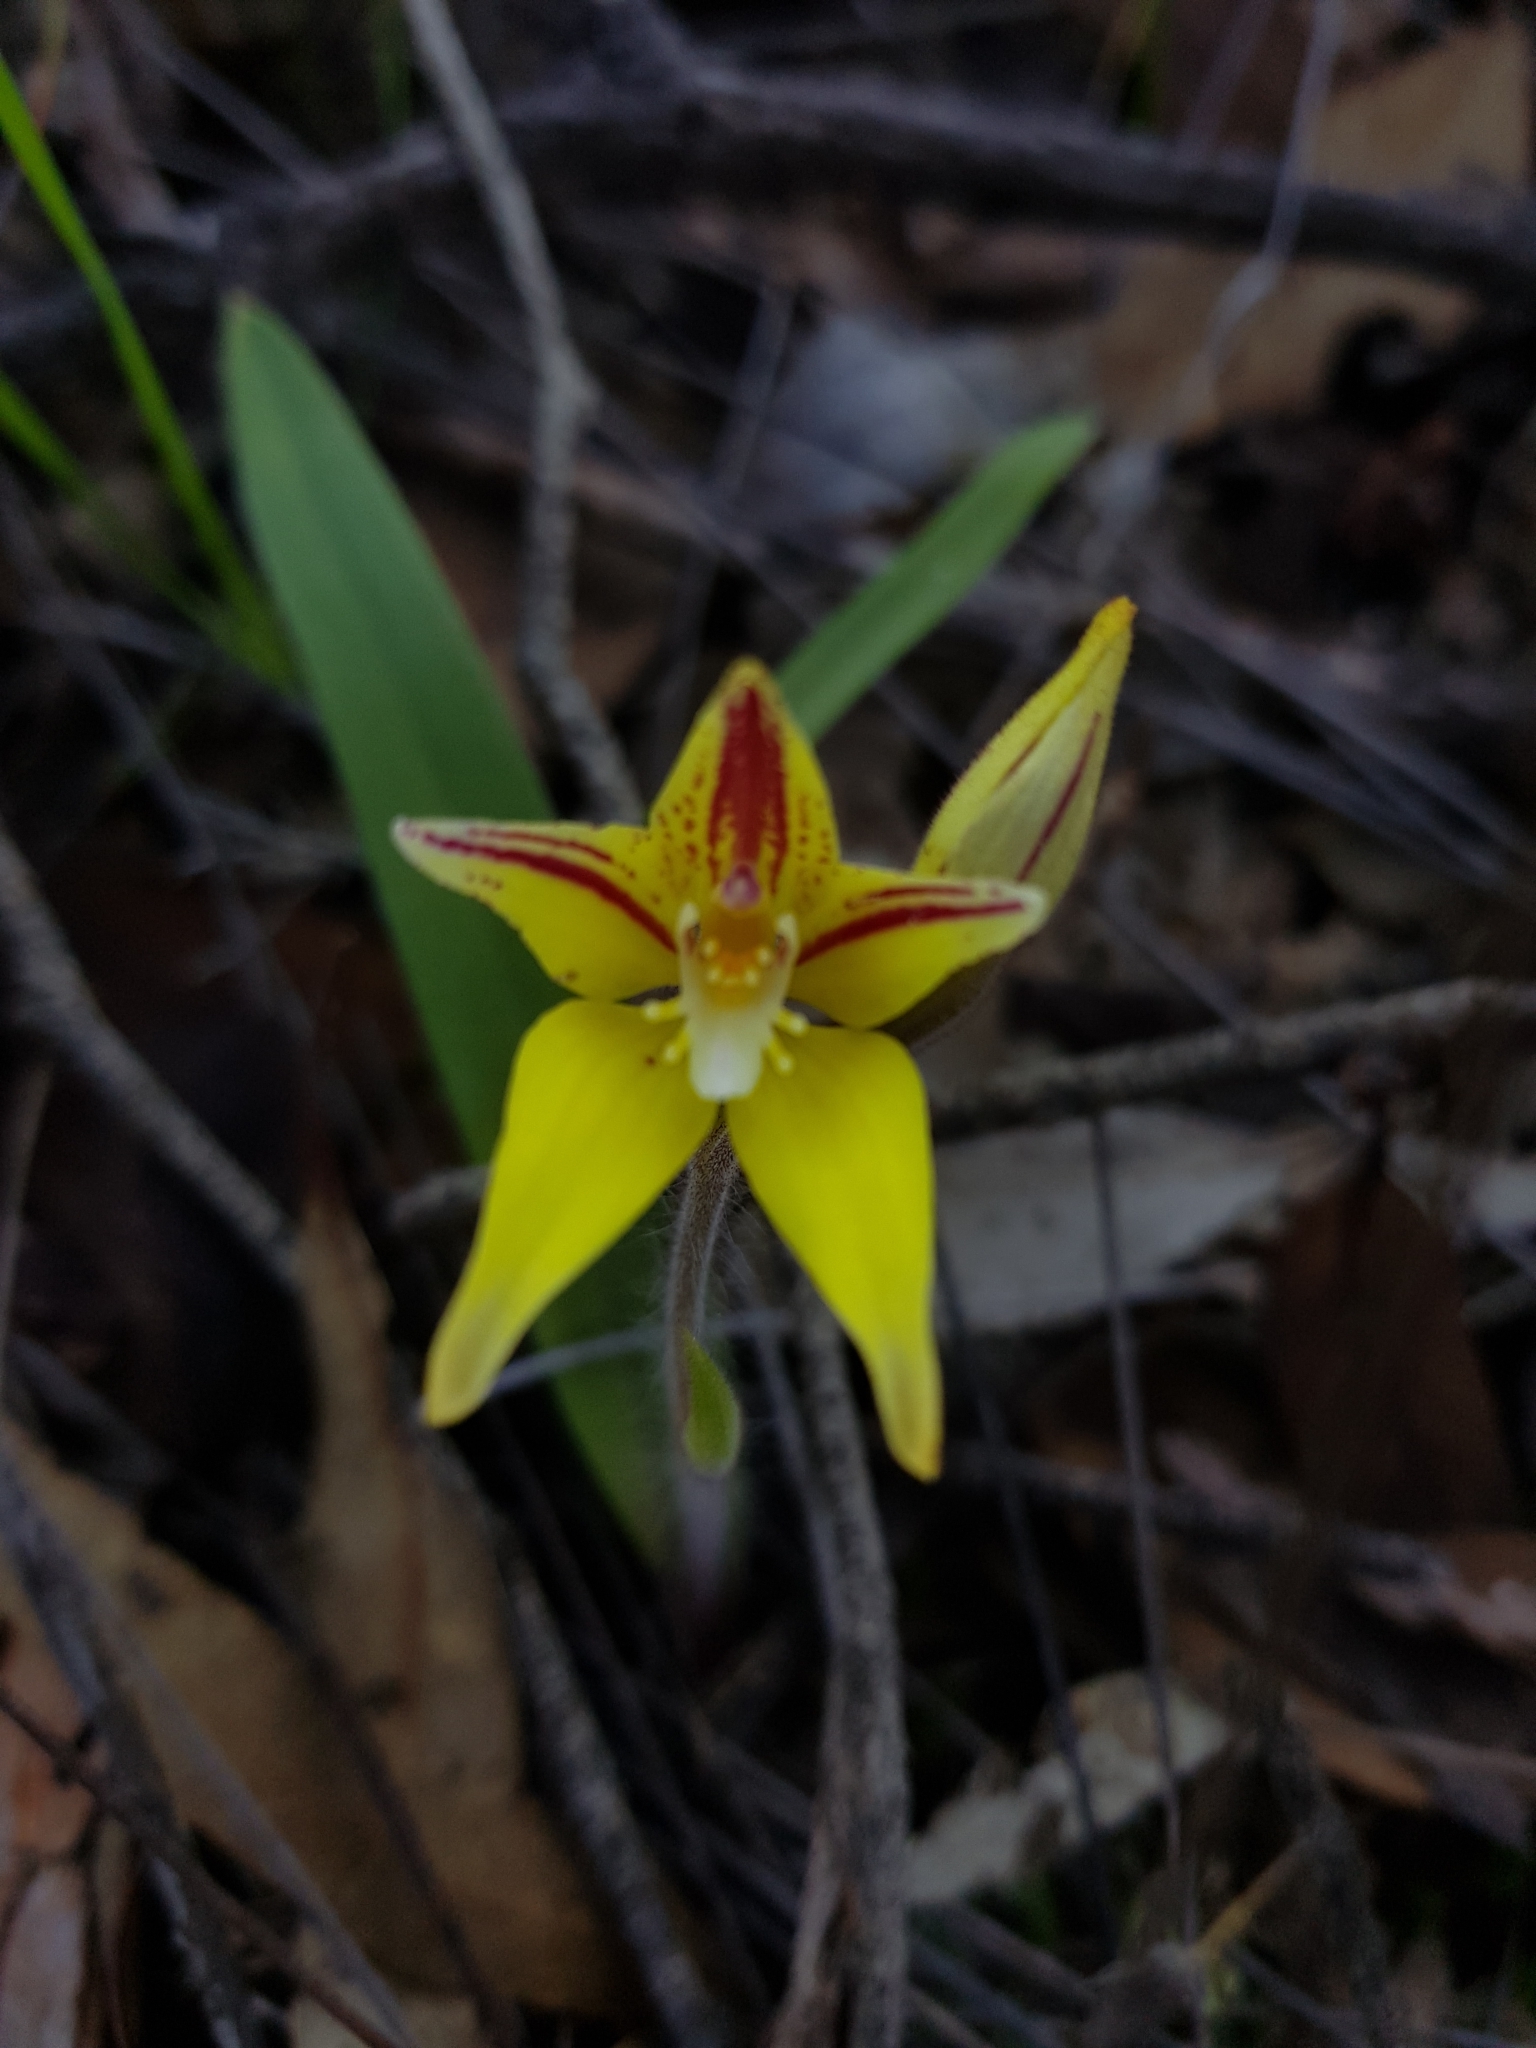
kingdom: Plantae
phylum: Tracheophyta
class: Liliopsida
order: Asparagales
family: Orchidaceae
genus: Caladenia
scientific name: Caladenia flava
